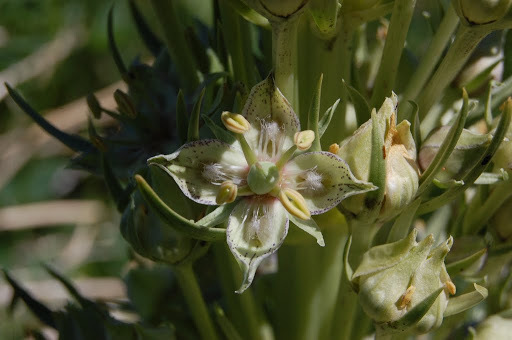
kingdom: Plantae
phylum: Tracheophyta
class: Magnoliopsida
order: Gentianales
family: Gentianaceae
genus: Frasera
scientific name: Frasera speciosa
